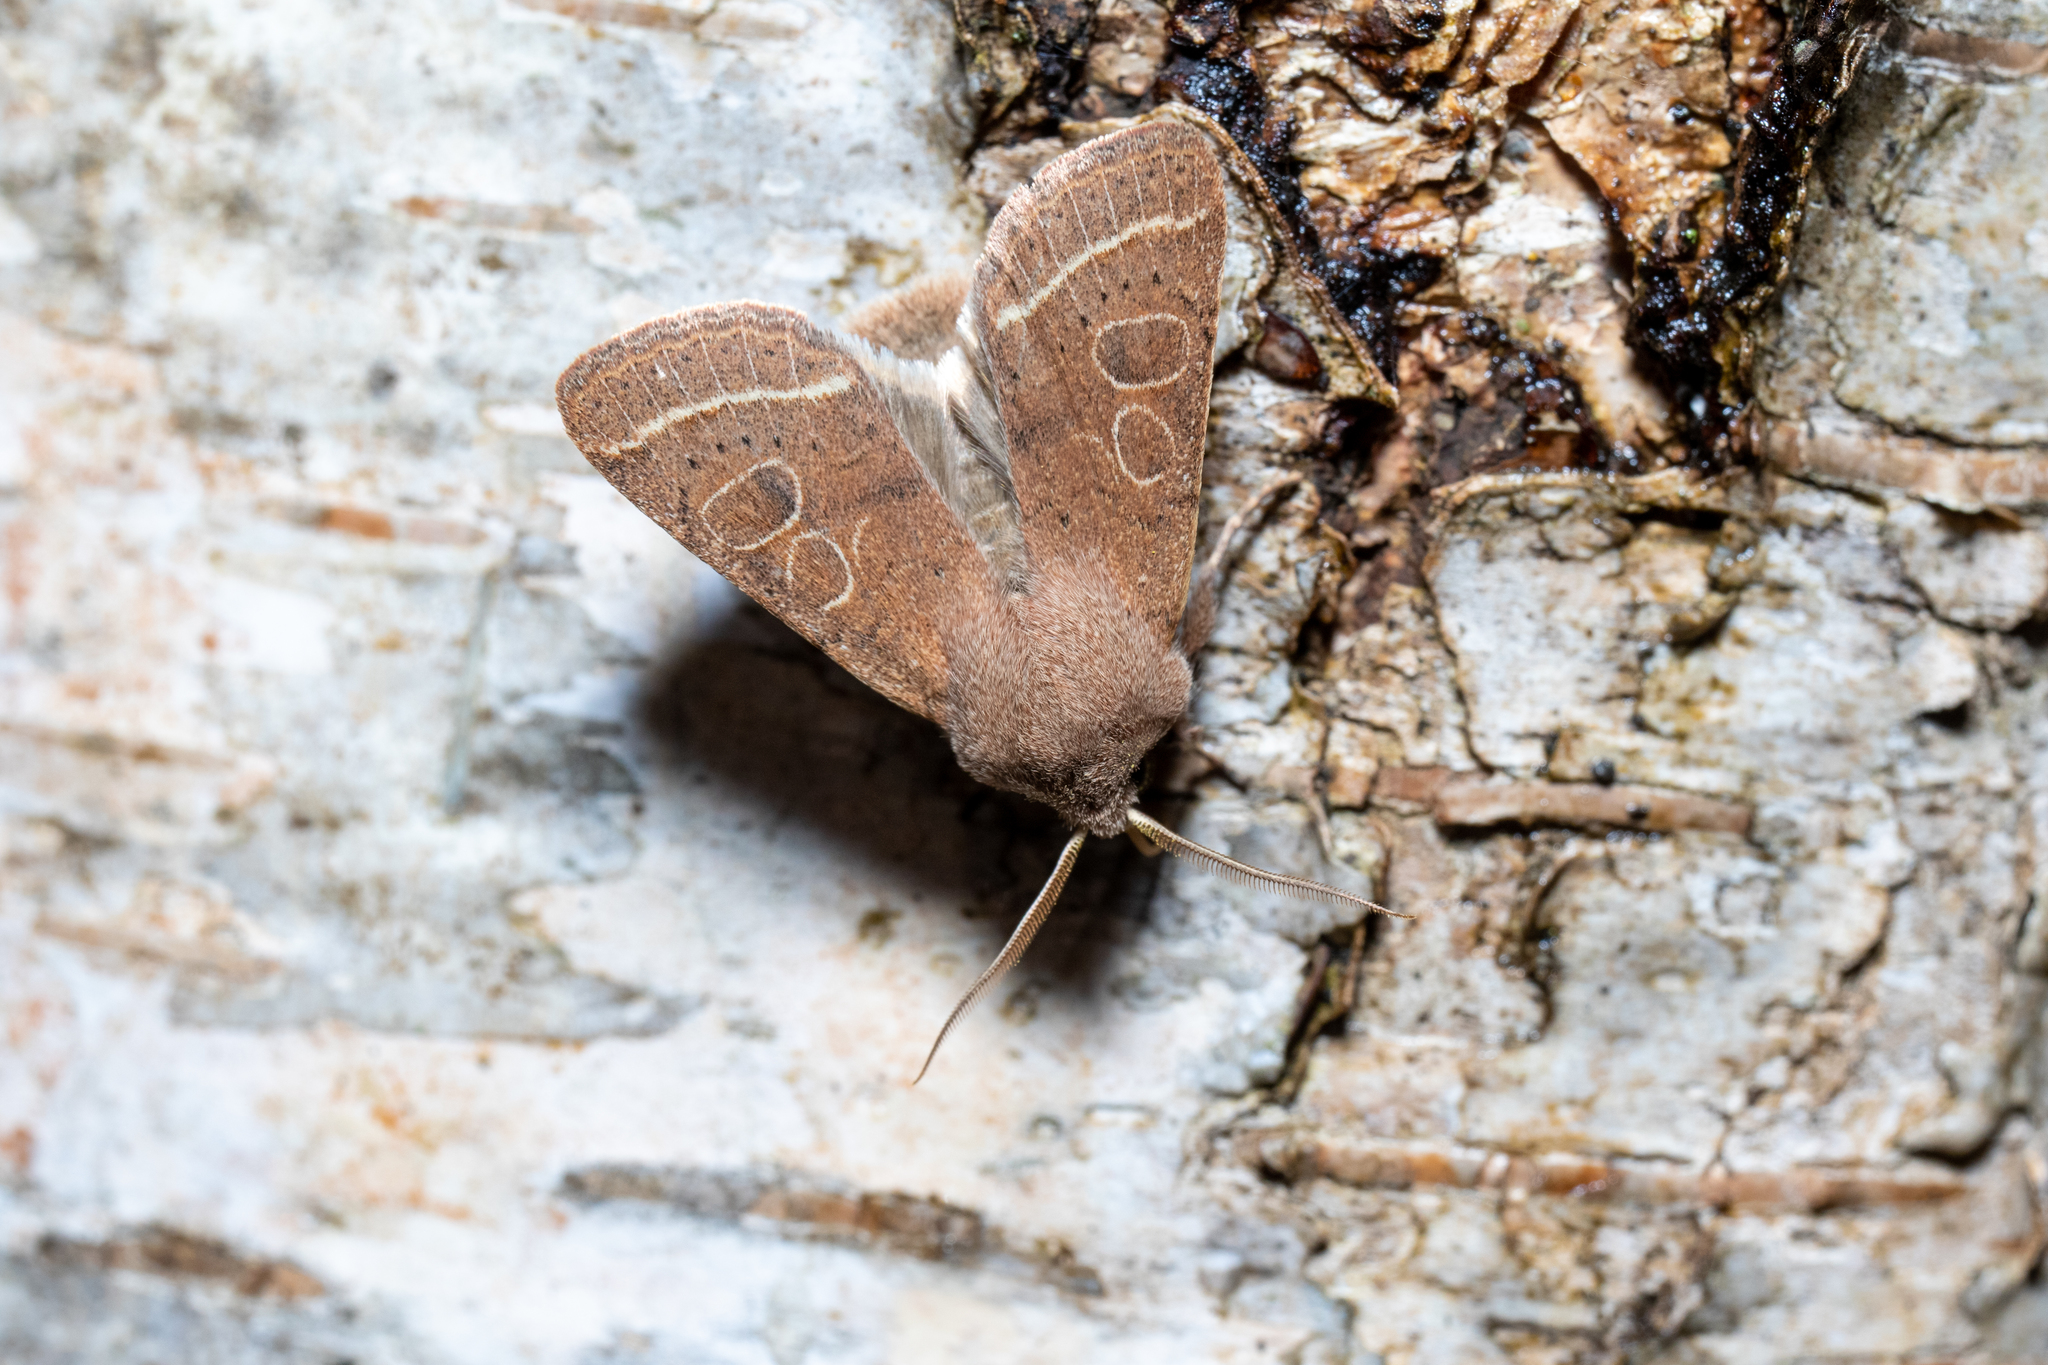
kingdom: Animalia
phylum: Arthropoda
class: Insecta
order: Lepidoptera
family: Noctuidae
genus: Orthosia
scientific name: Orthosia cerasi
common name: Common quaker
